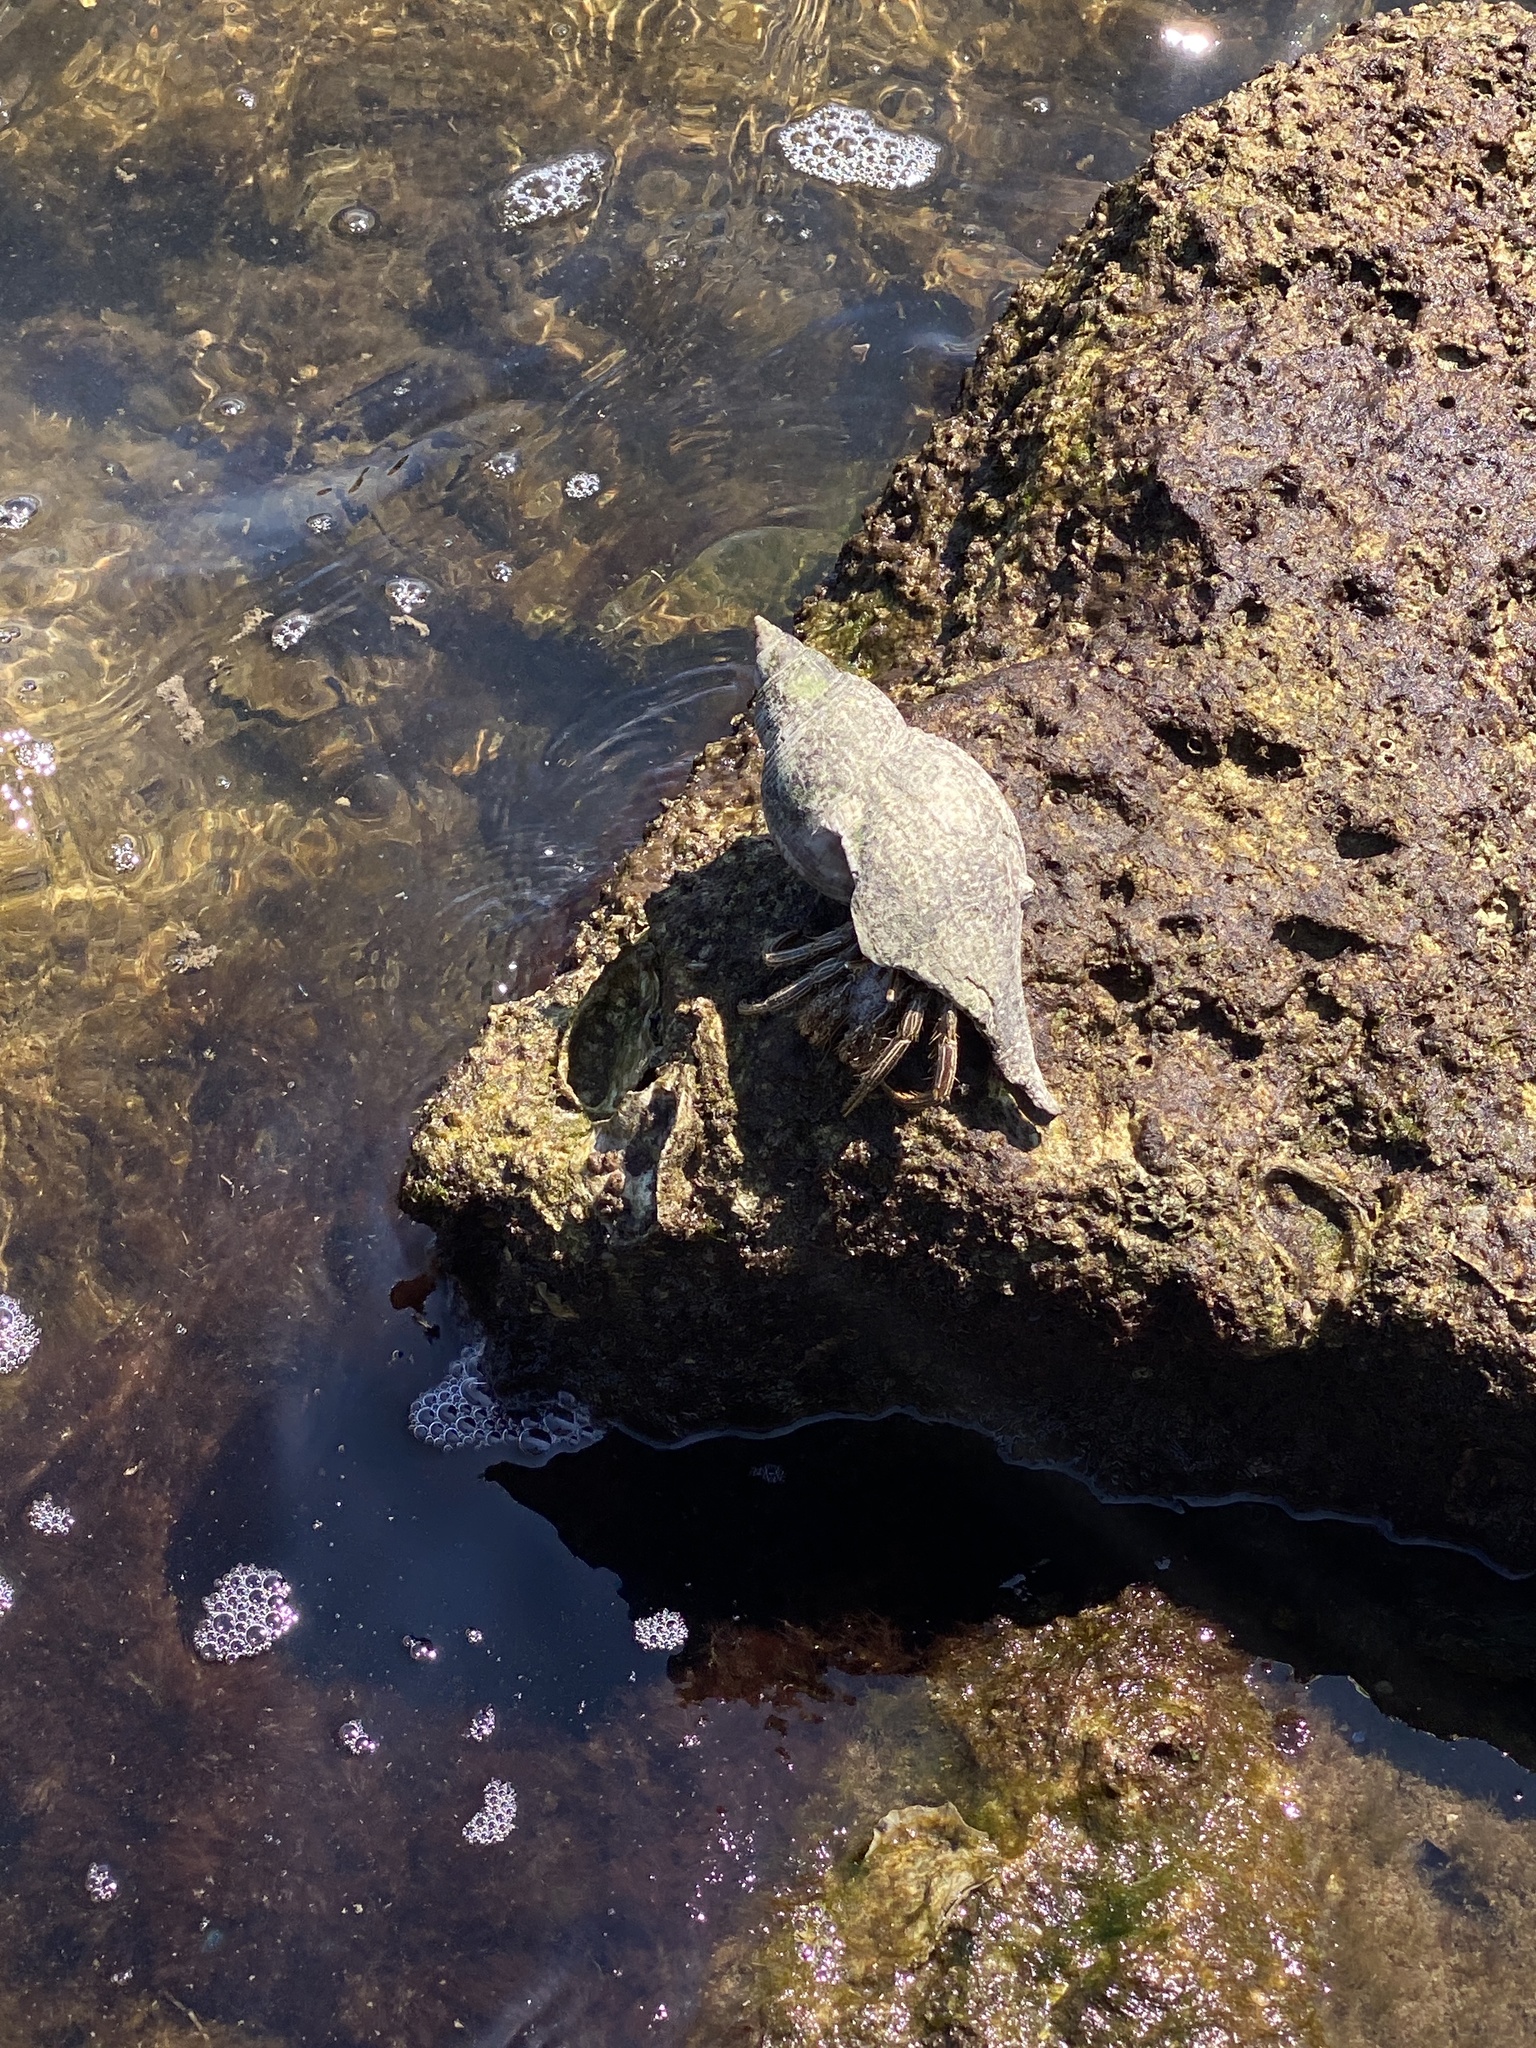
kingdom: Animalia
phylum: Arthropoda
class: Malacostraca
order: Decapoda
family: Diogenidae
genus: Clibanarius
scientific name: Clibanarius vittatus
